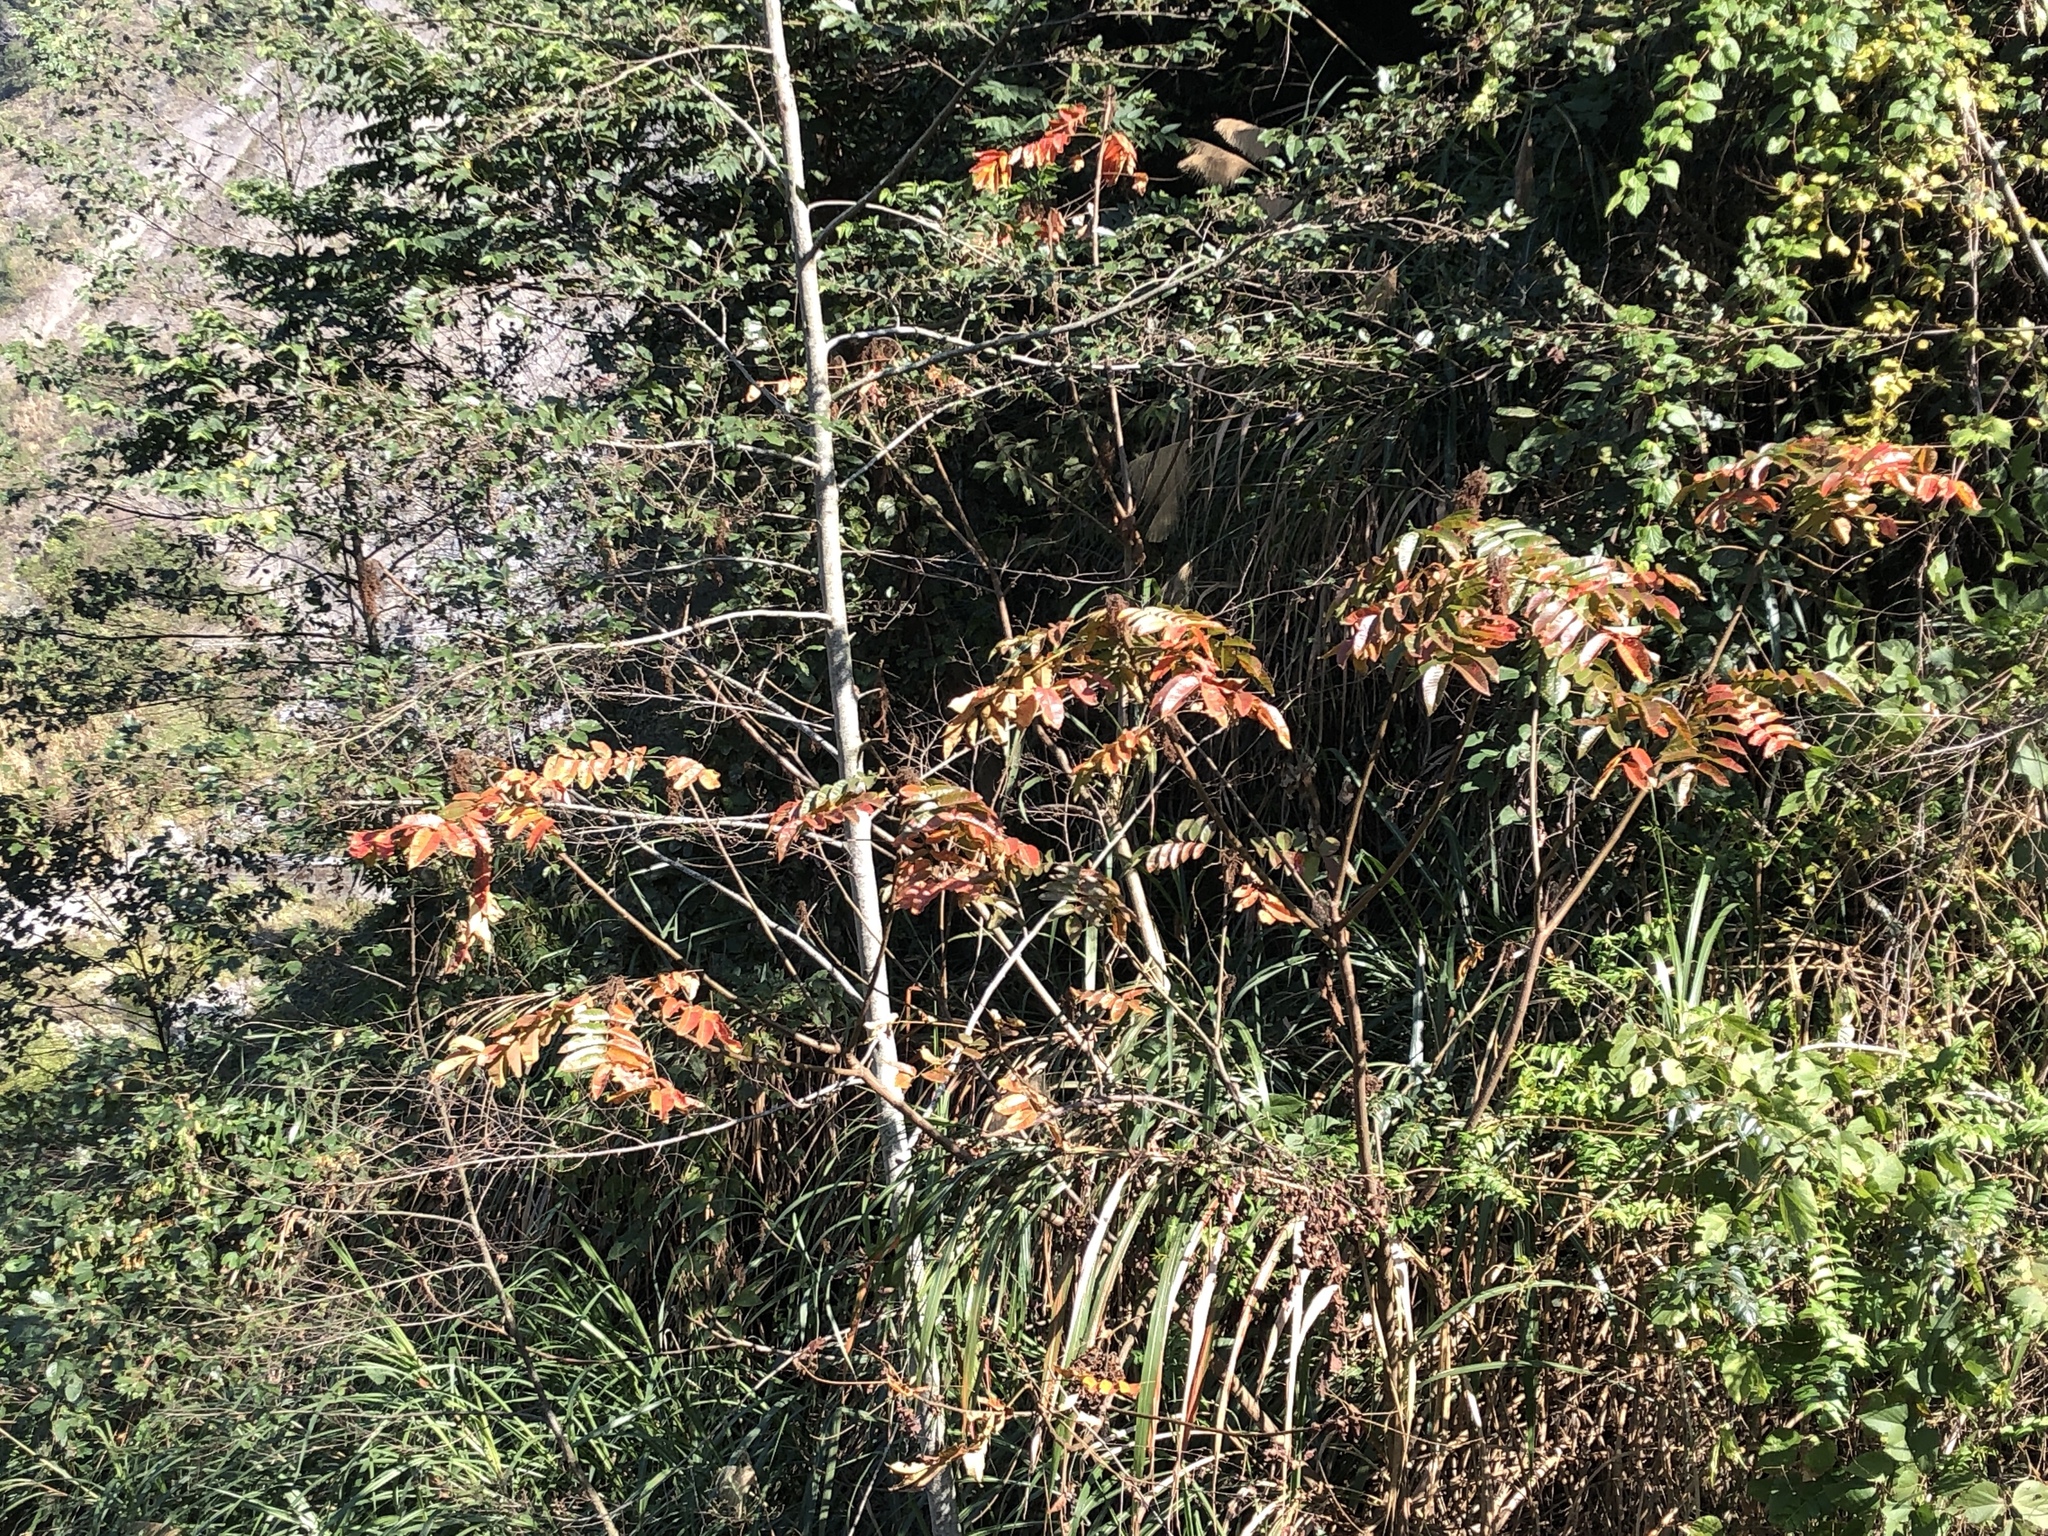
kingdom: Plantae
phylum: Tracheophyta
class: Magnoliopsida
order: Sapindales
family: Anacardiaceae
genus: Rhus
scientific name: Rhus chinensis
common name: Chinese gall
